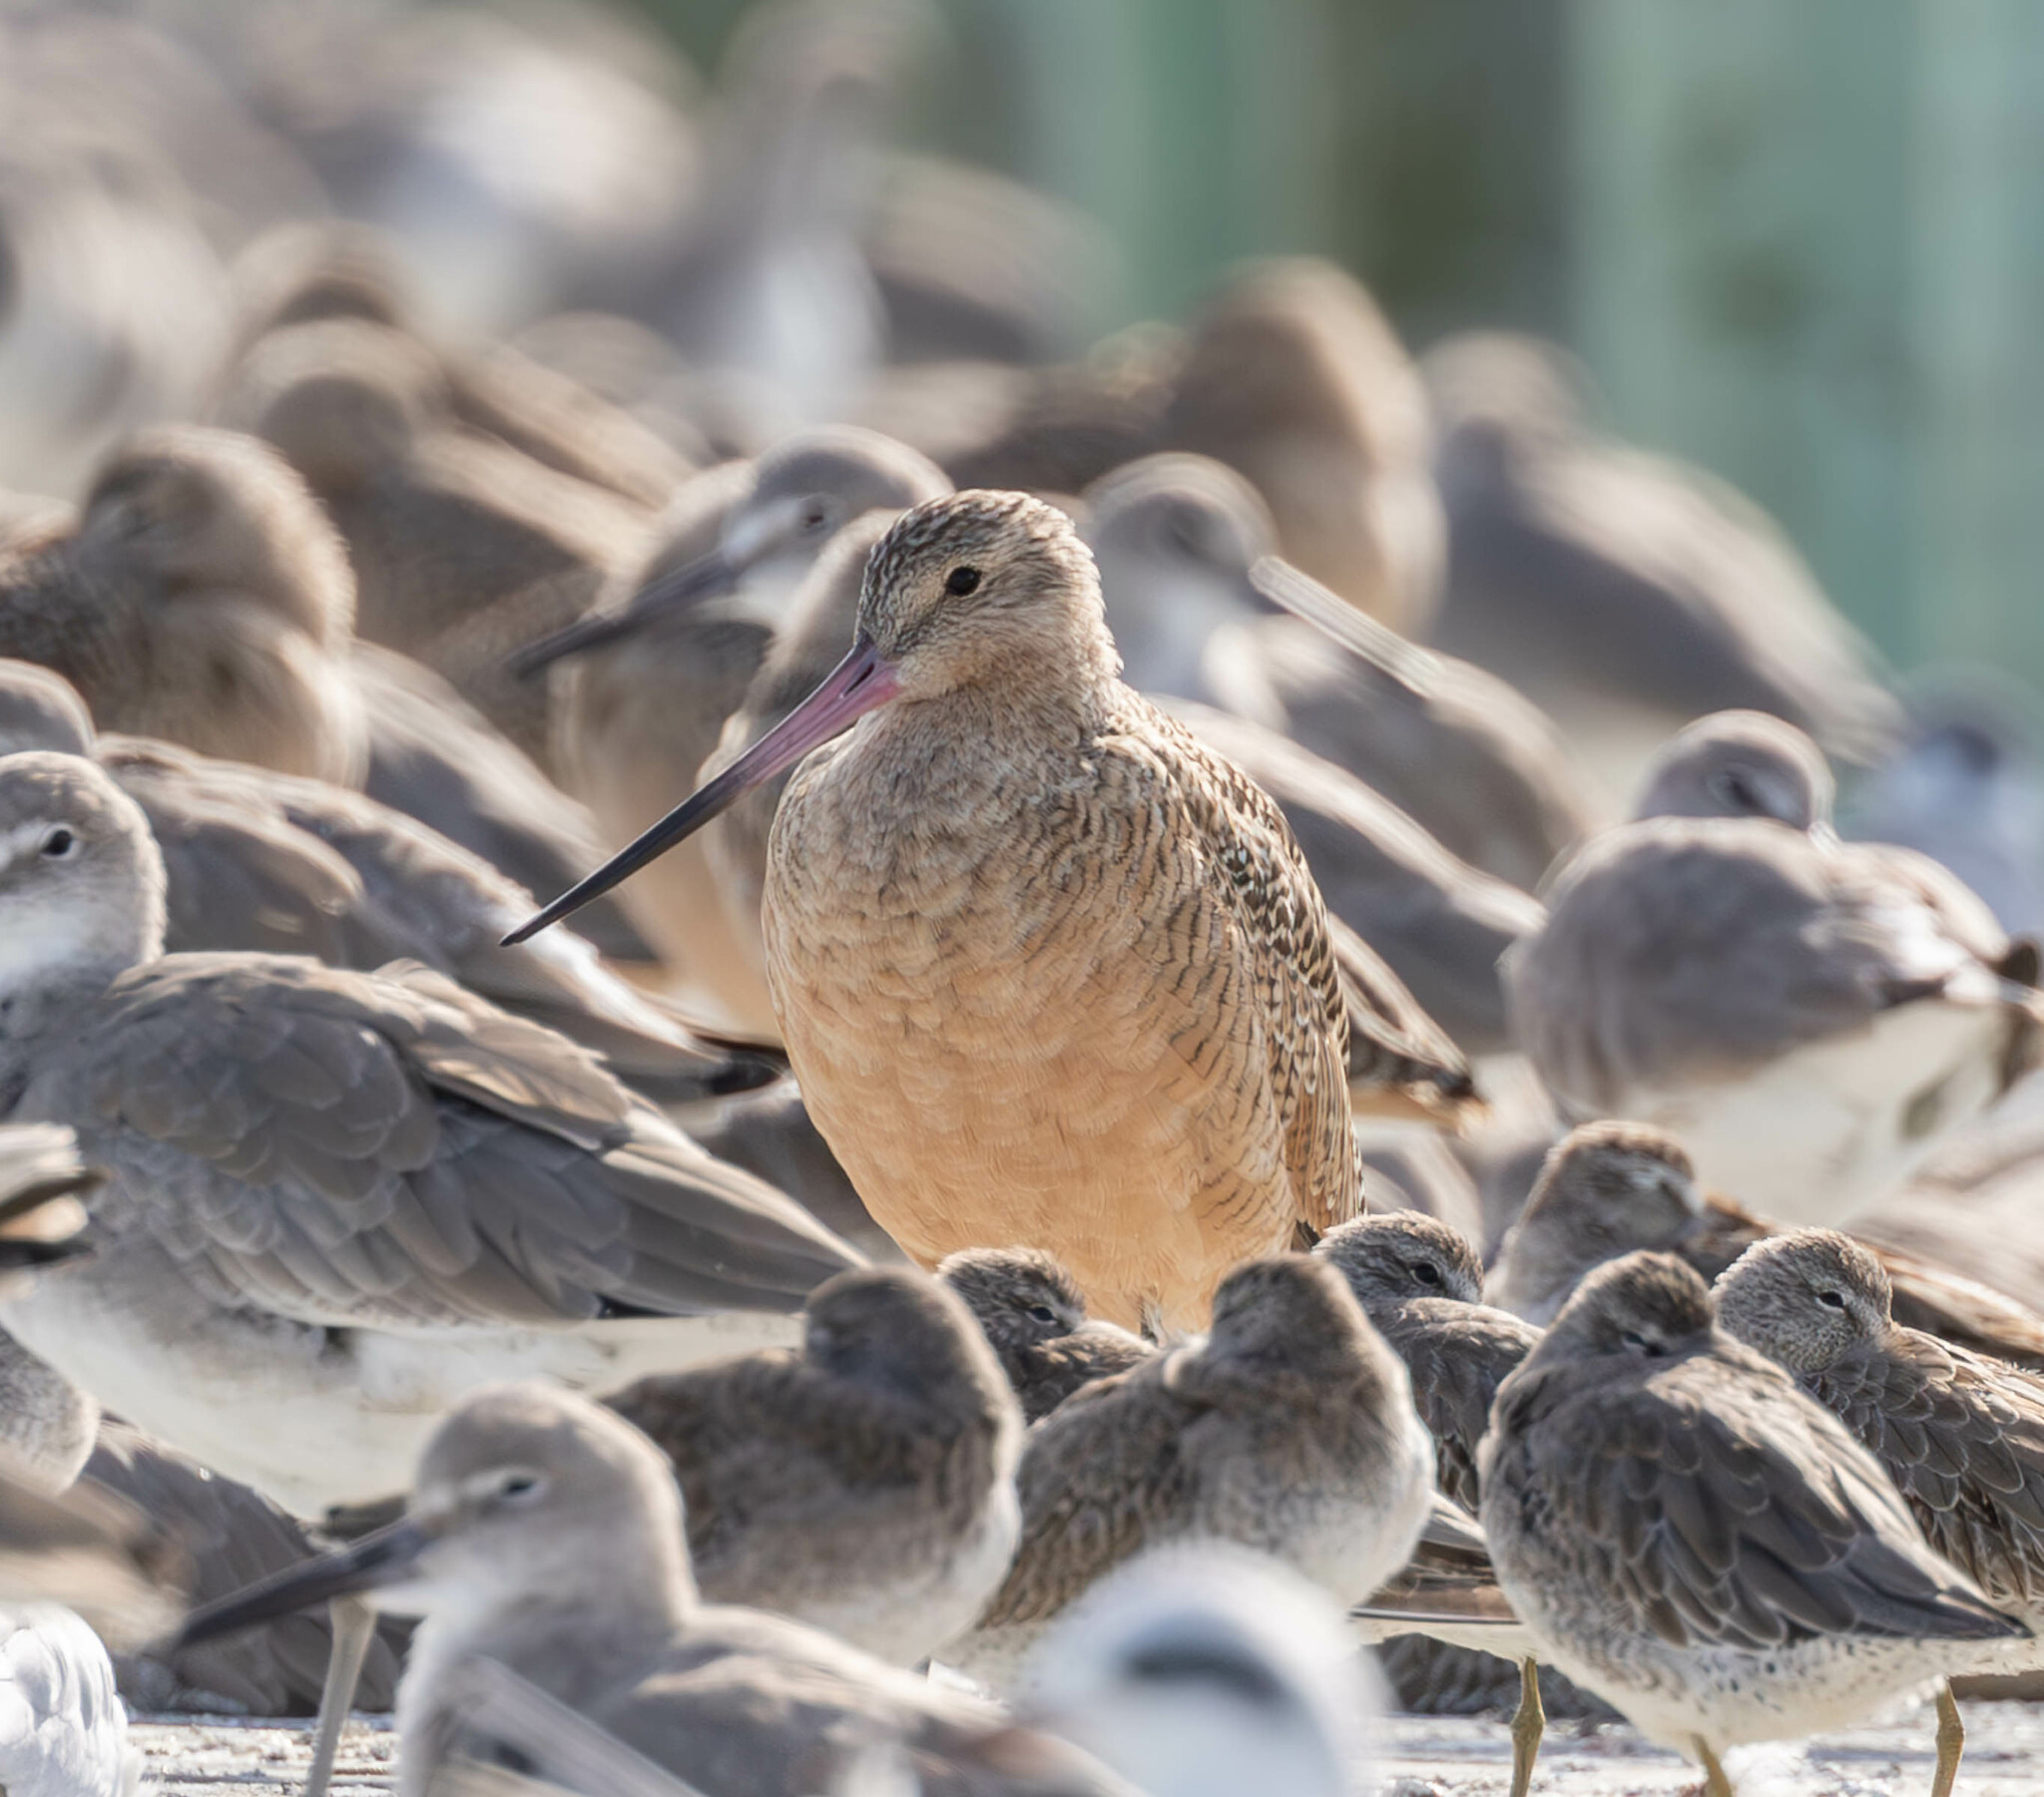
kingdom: Animalia
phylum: Chordata
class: Aves
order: Charadriiformes
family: Scolopacidae
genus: Limosa
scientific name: Limosa fedoa
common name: Marbled godwit
